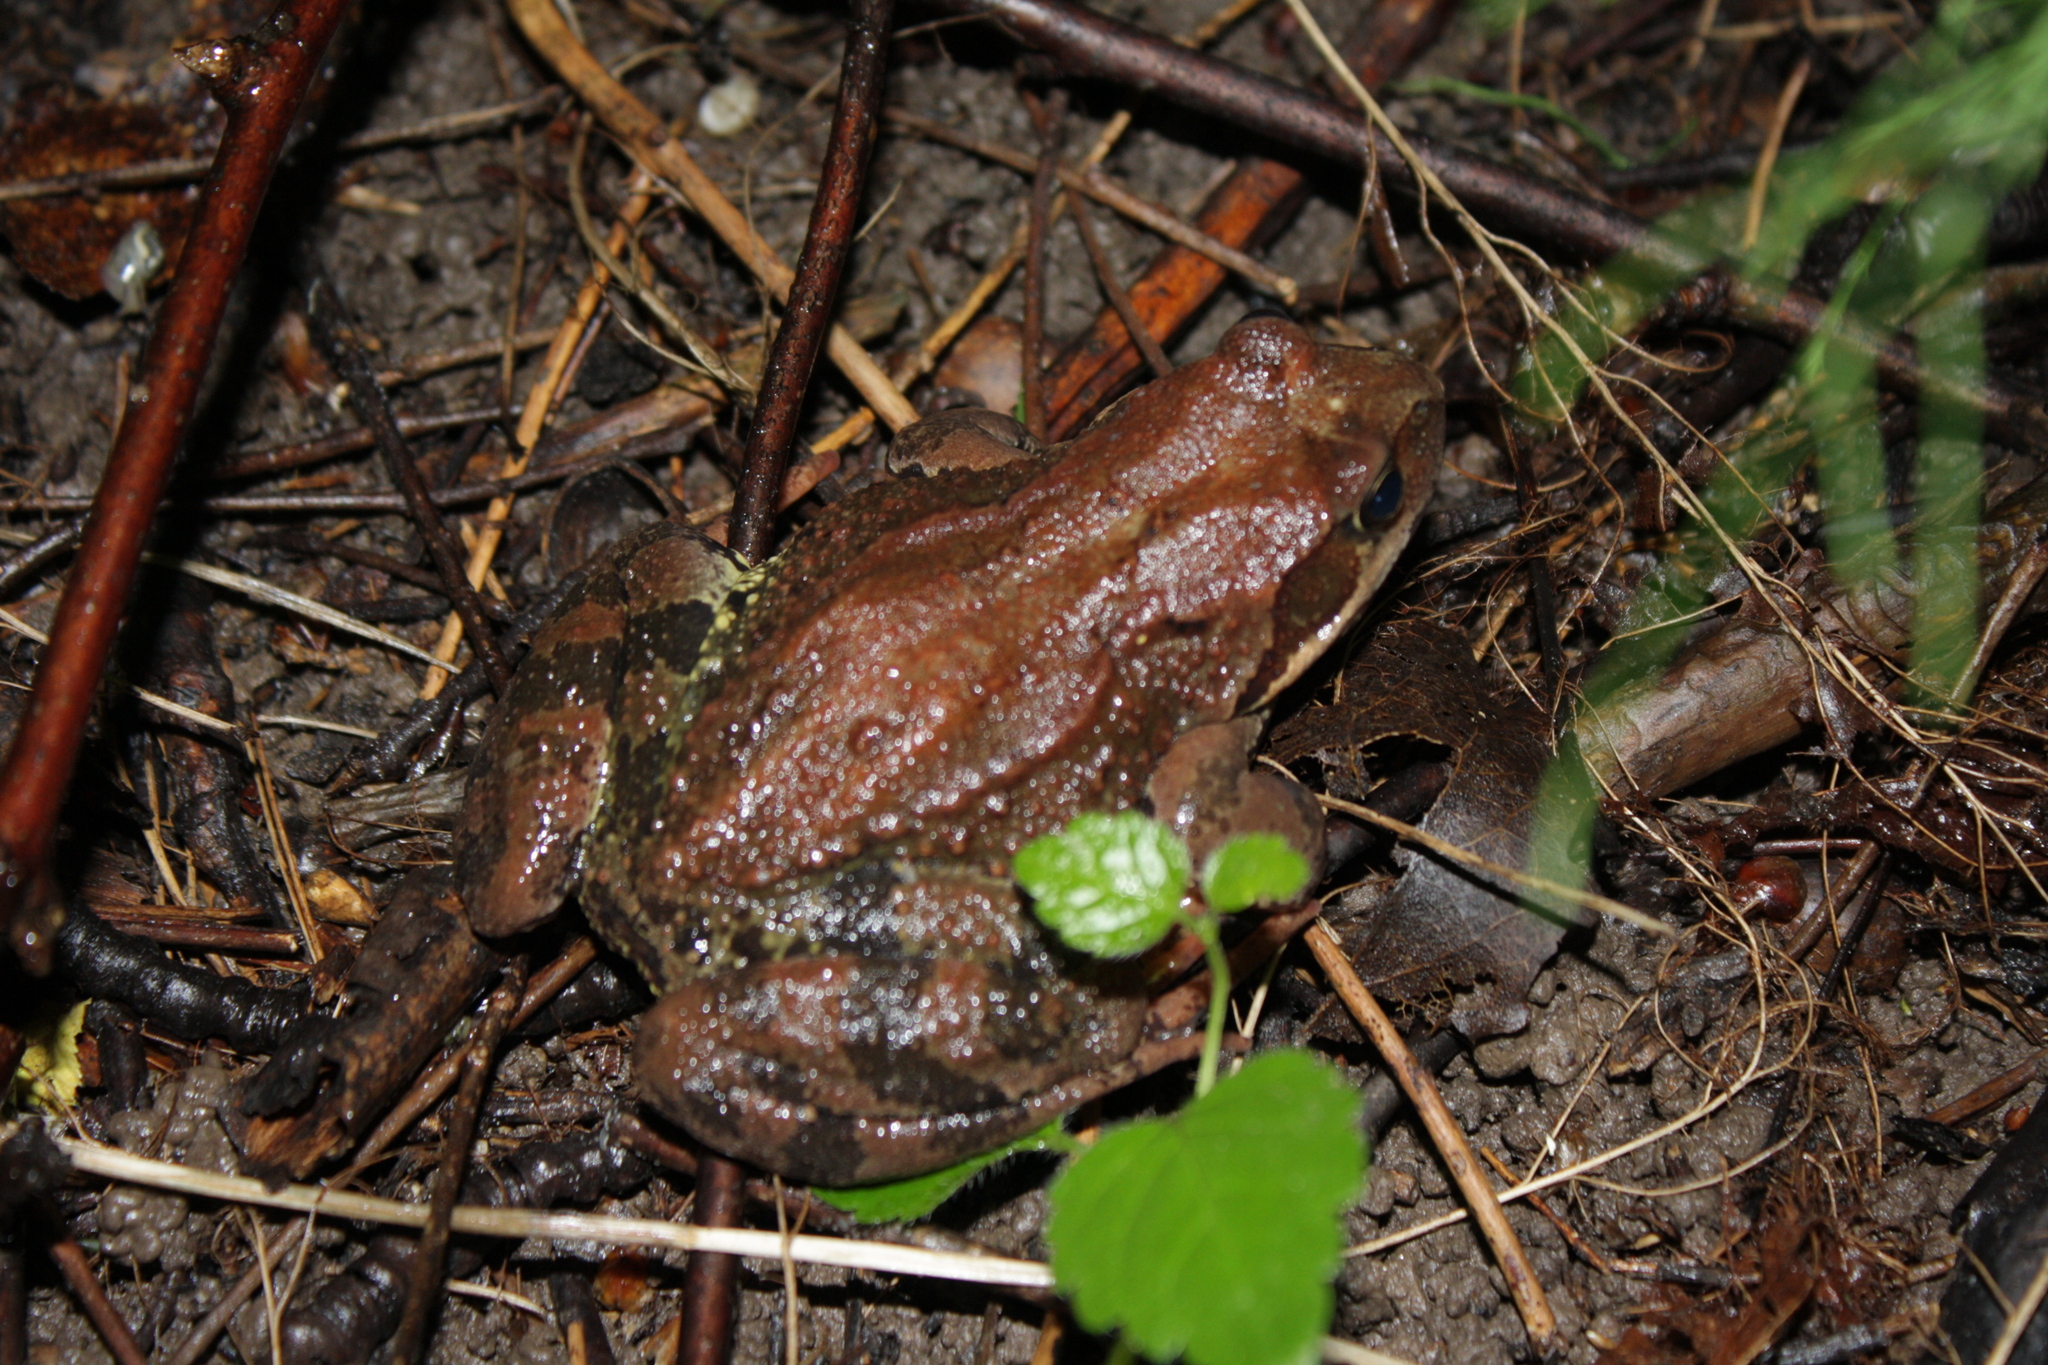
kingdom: Animalia
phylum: Chordata
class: Amphibia
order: Anura
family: Ranidae
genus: Rana
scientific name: Rana temporaria
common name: Common frog
